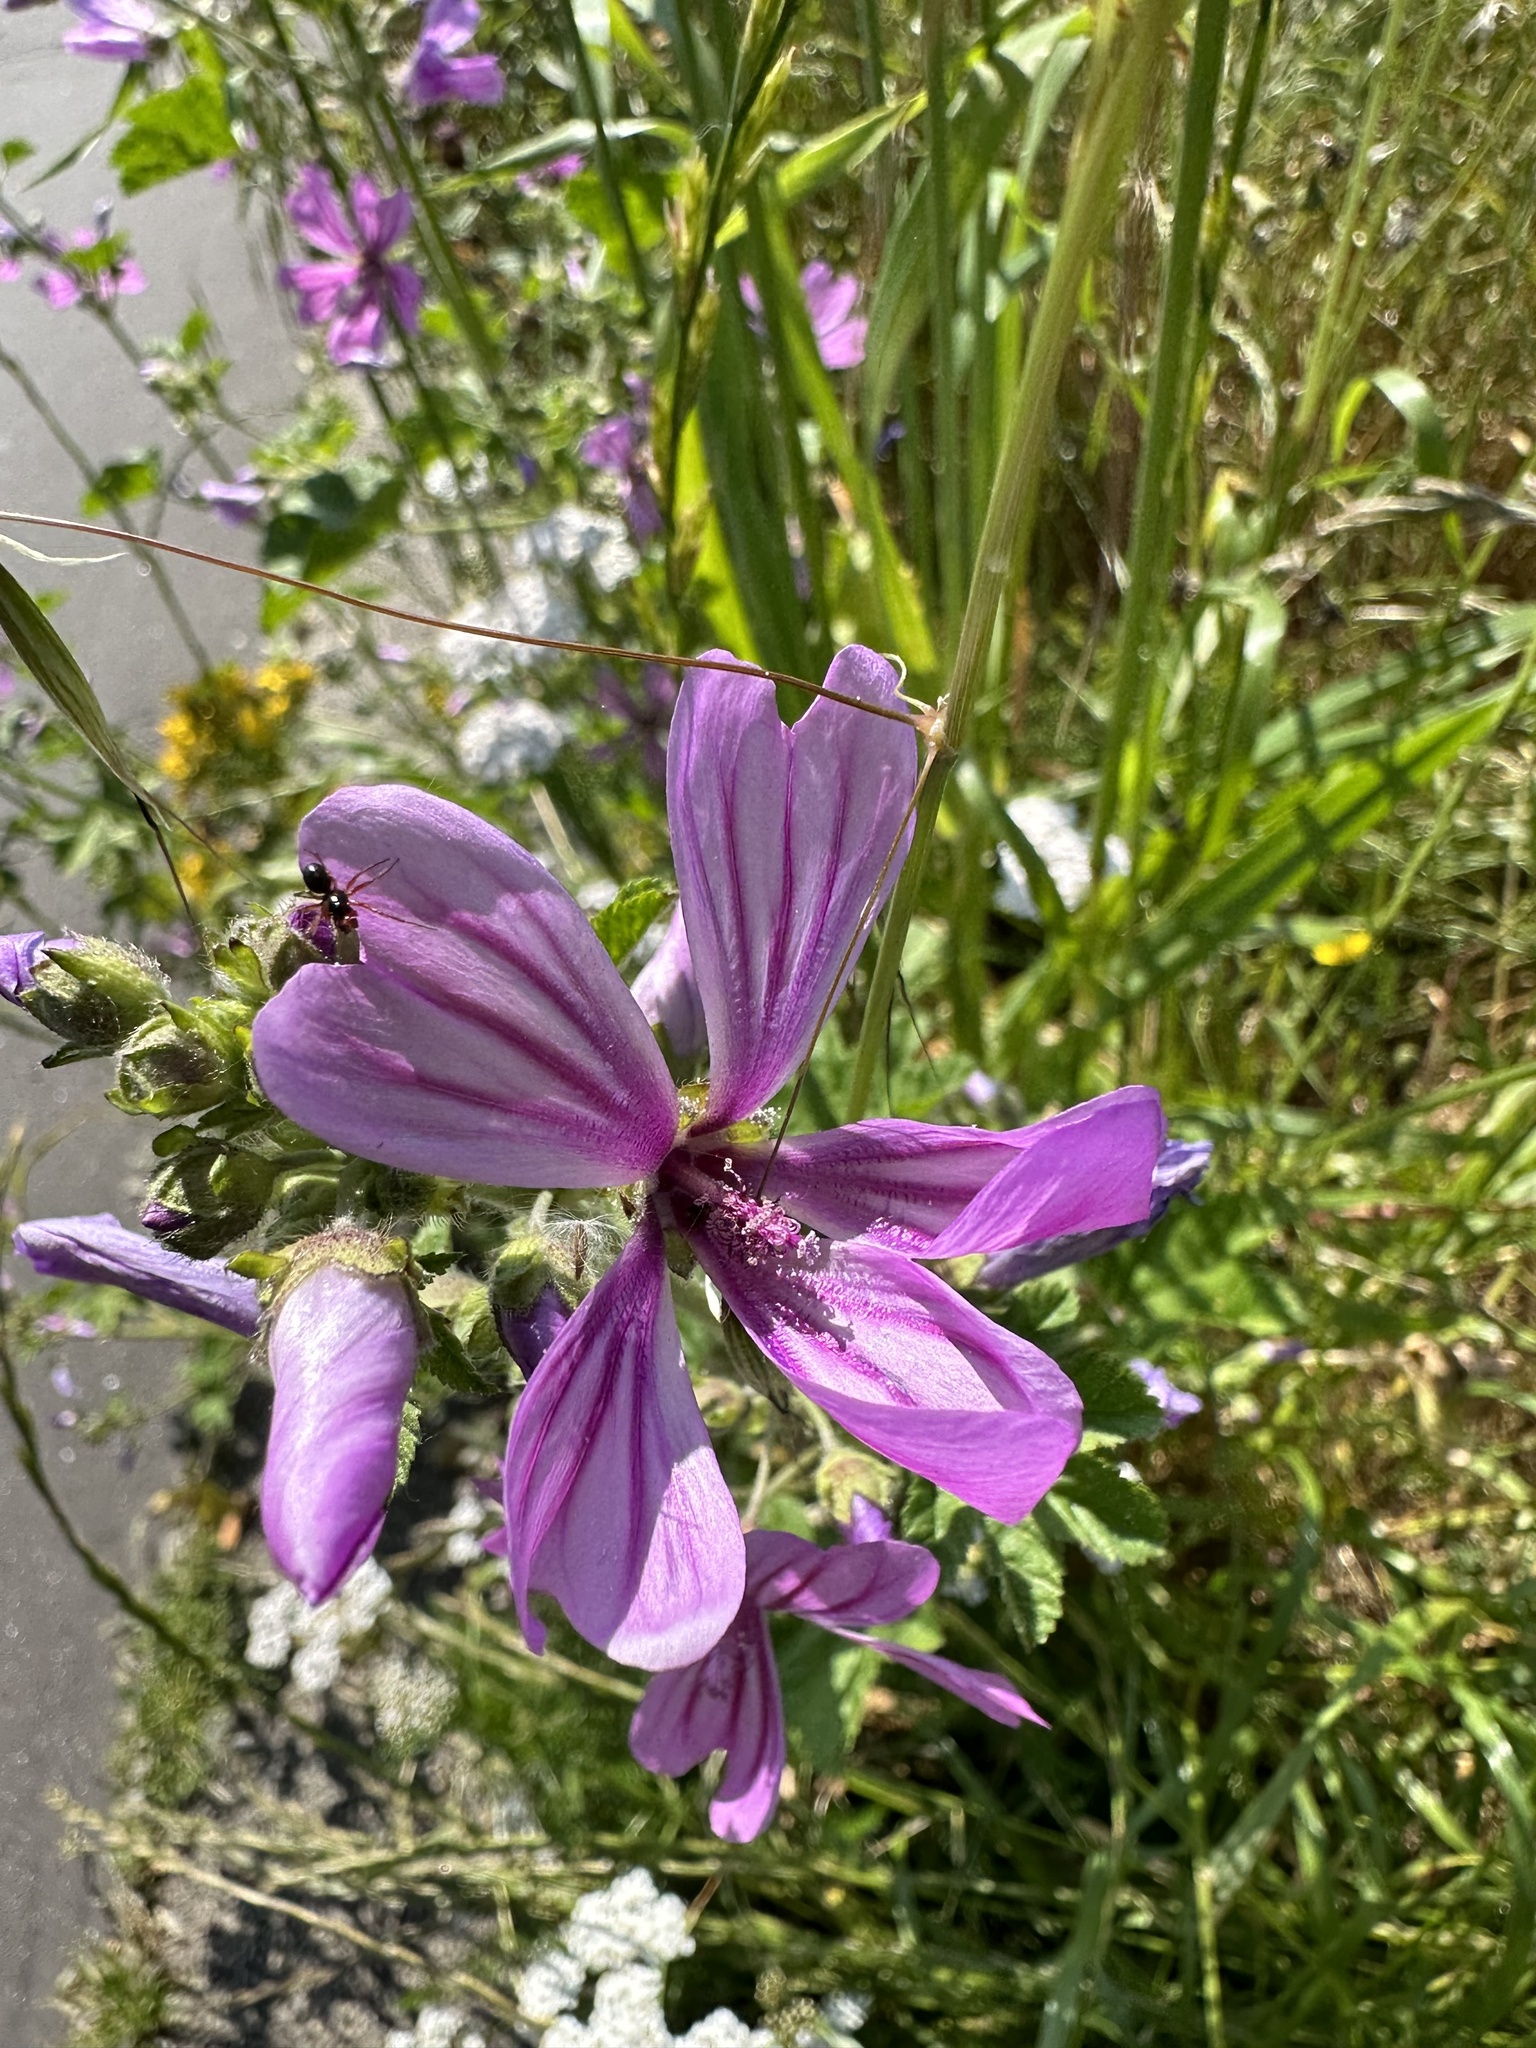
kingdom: Plantae
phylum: Tracheophyta
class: Magnoliopsida
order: Malvales
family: Malvaceae
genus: Malva
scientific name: Malva sylvestris
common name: Common mallow
